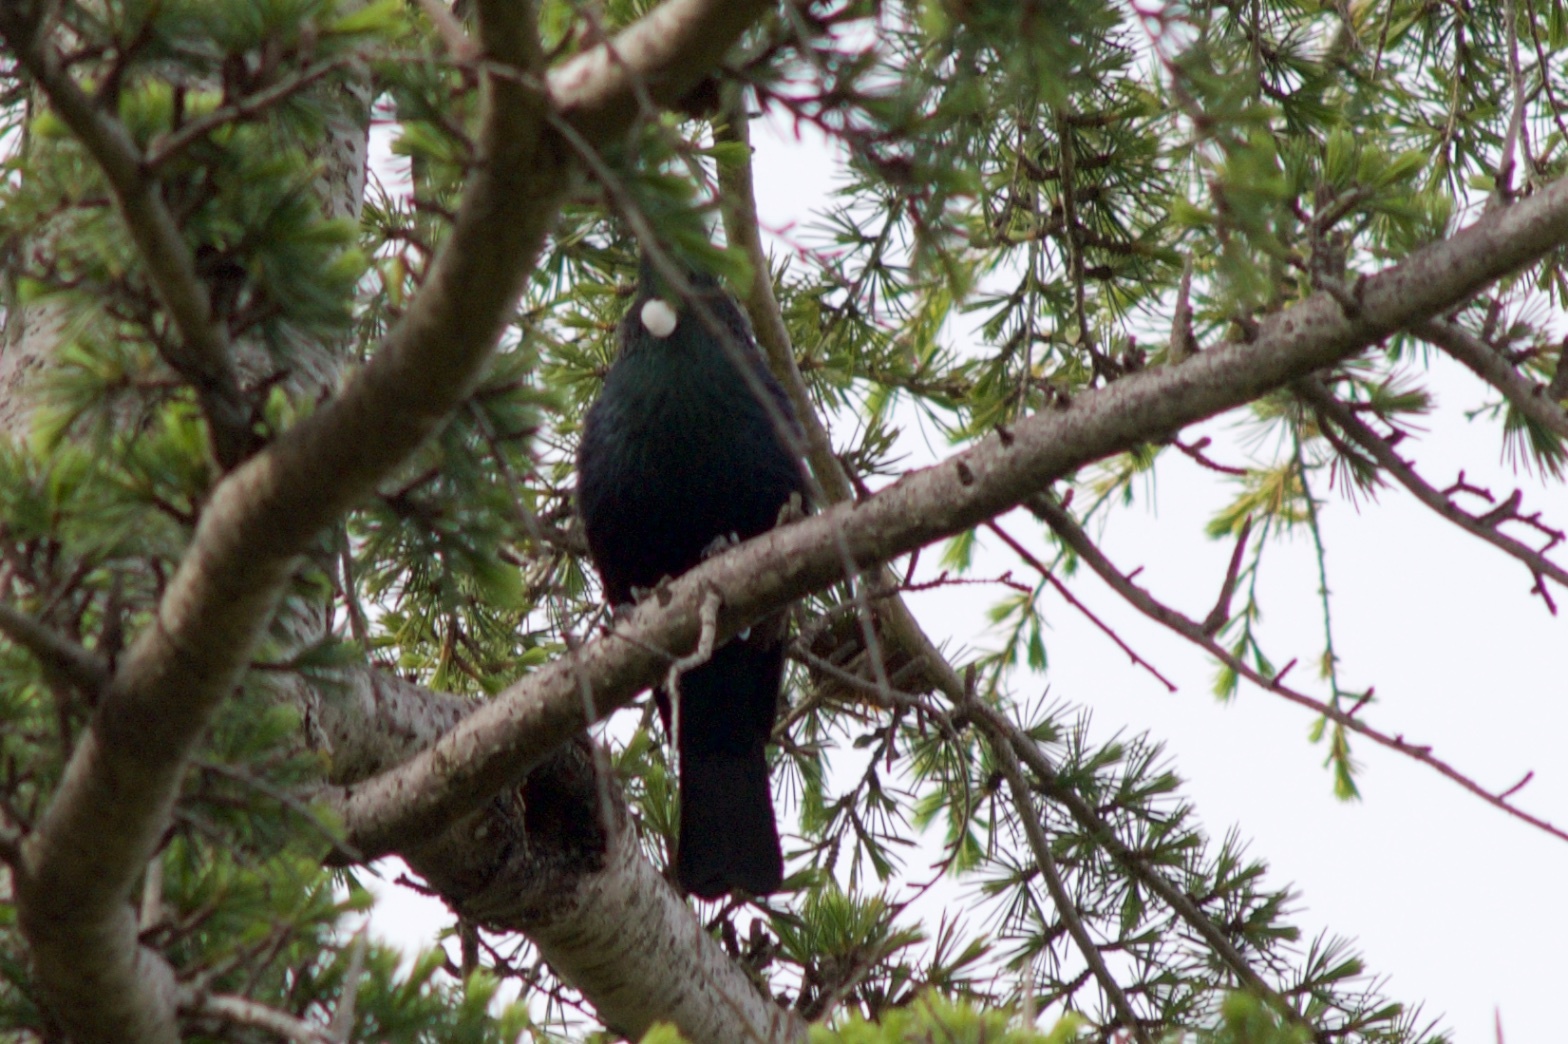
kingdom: Animalia
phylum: Chordata
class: Aves
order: Passeriformes
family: Meliphagidae
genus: Prosthemadera
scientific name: Prosthemadera novaeseelandiae
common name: Tui
